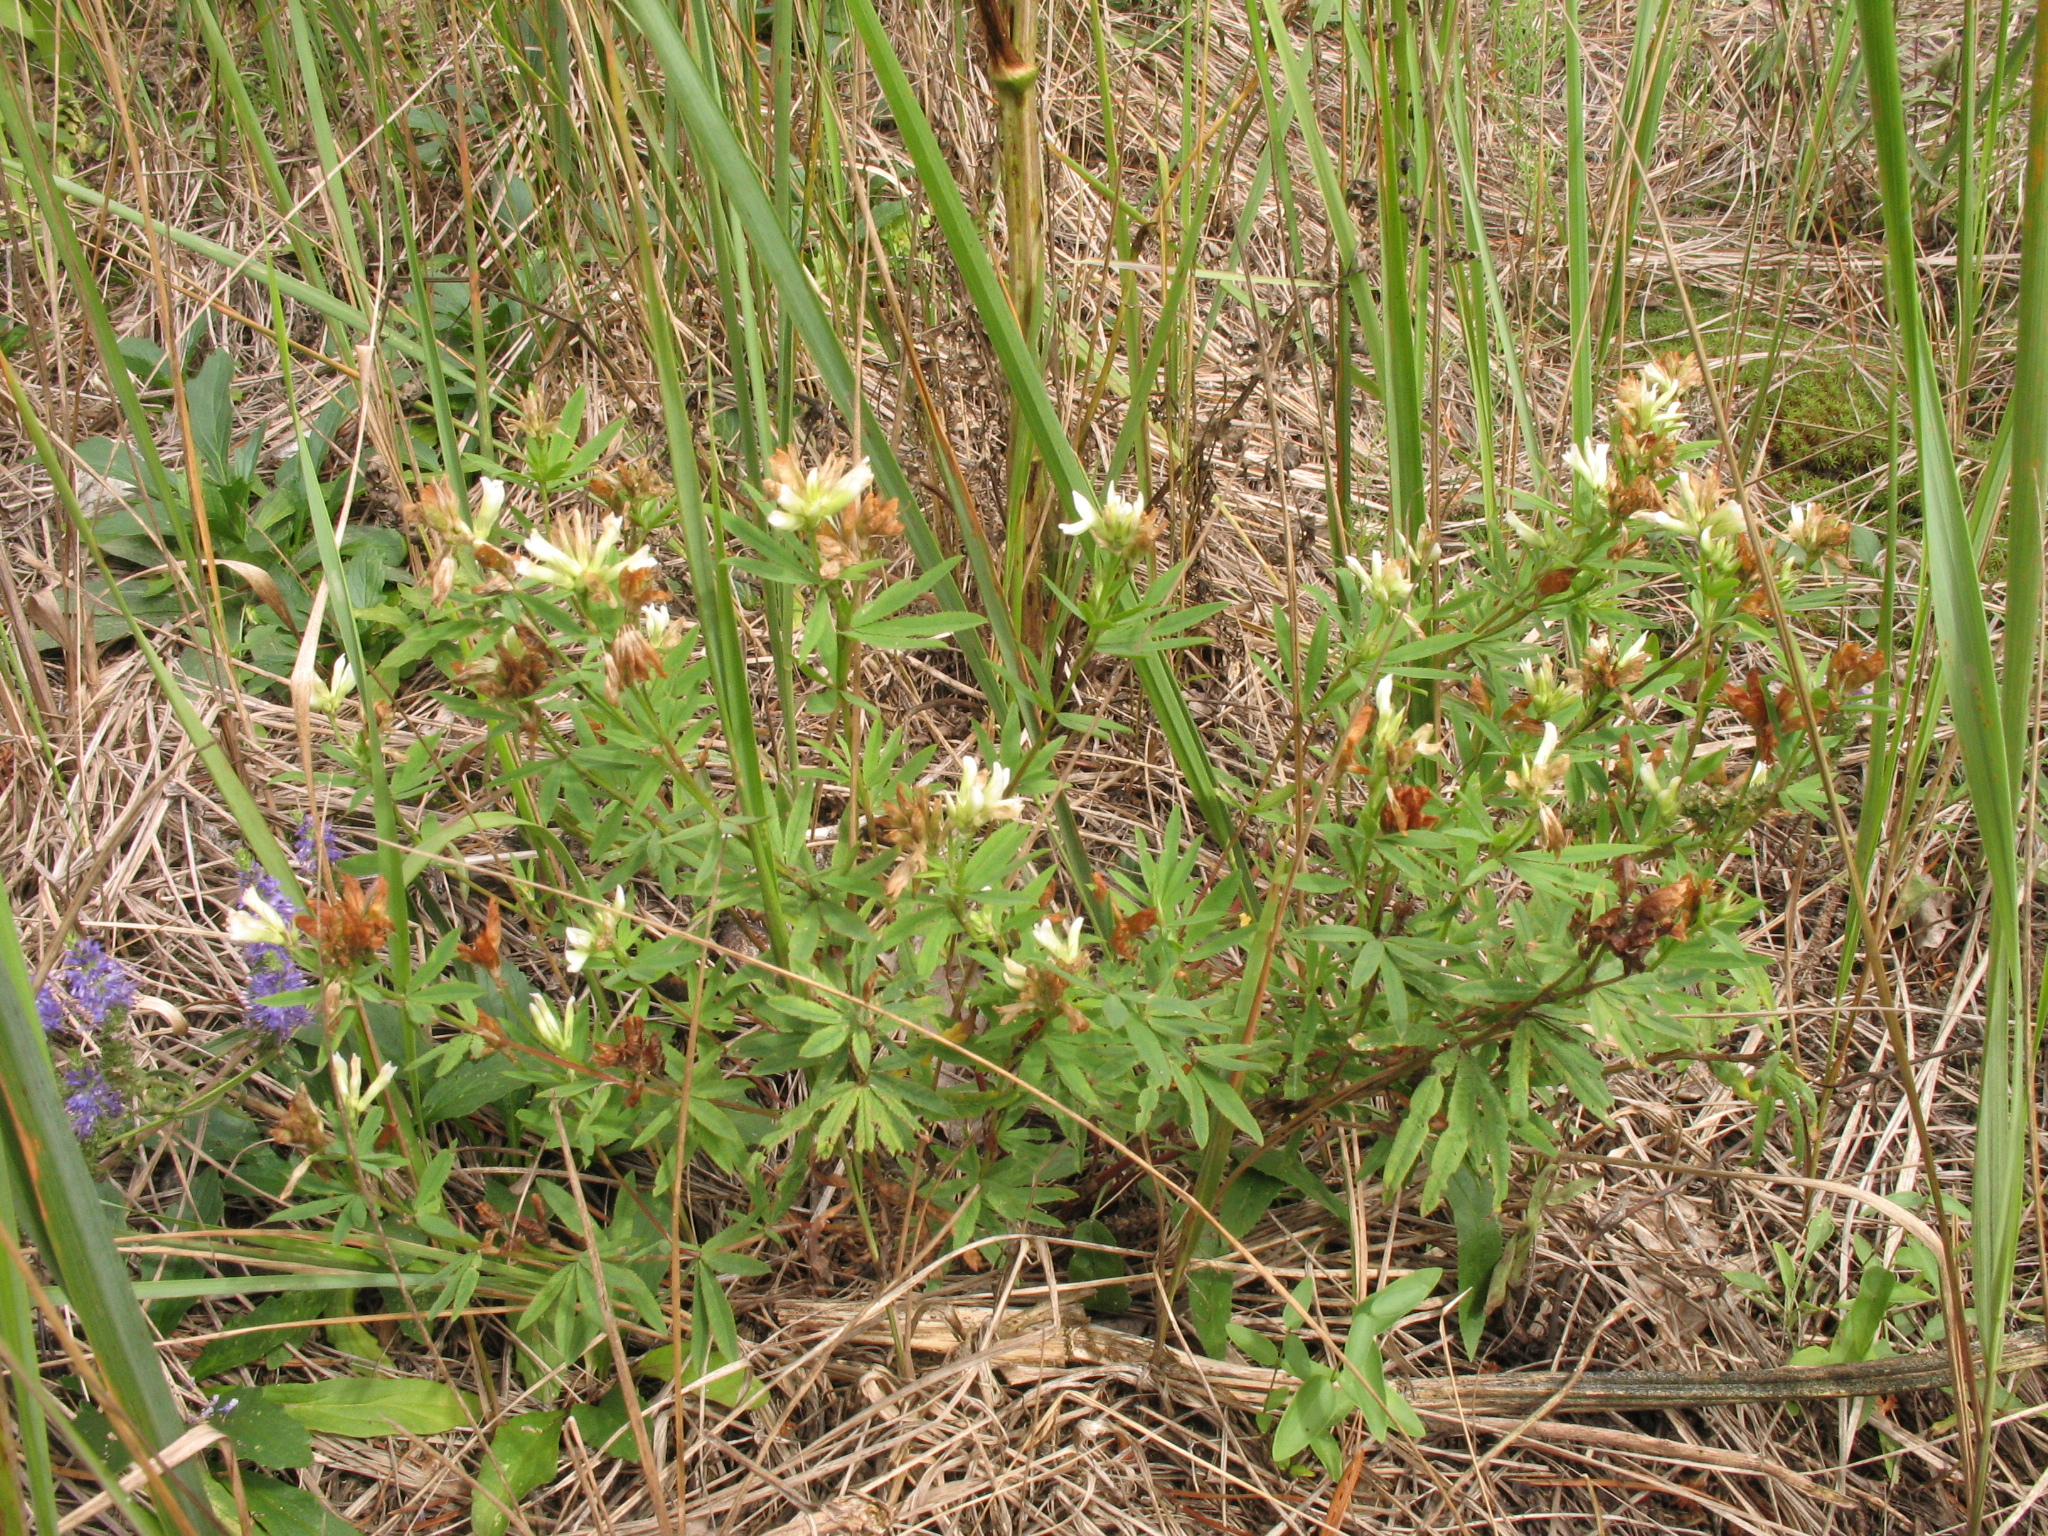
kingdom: Plantae
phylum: Tracheophyta
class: Magnoliopsida
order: Fabales
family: Fabaceae
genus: Trifolium
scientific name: Trifolium lupinaster
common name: Lupine clover
